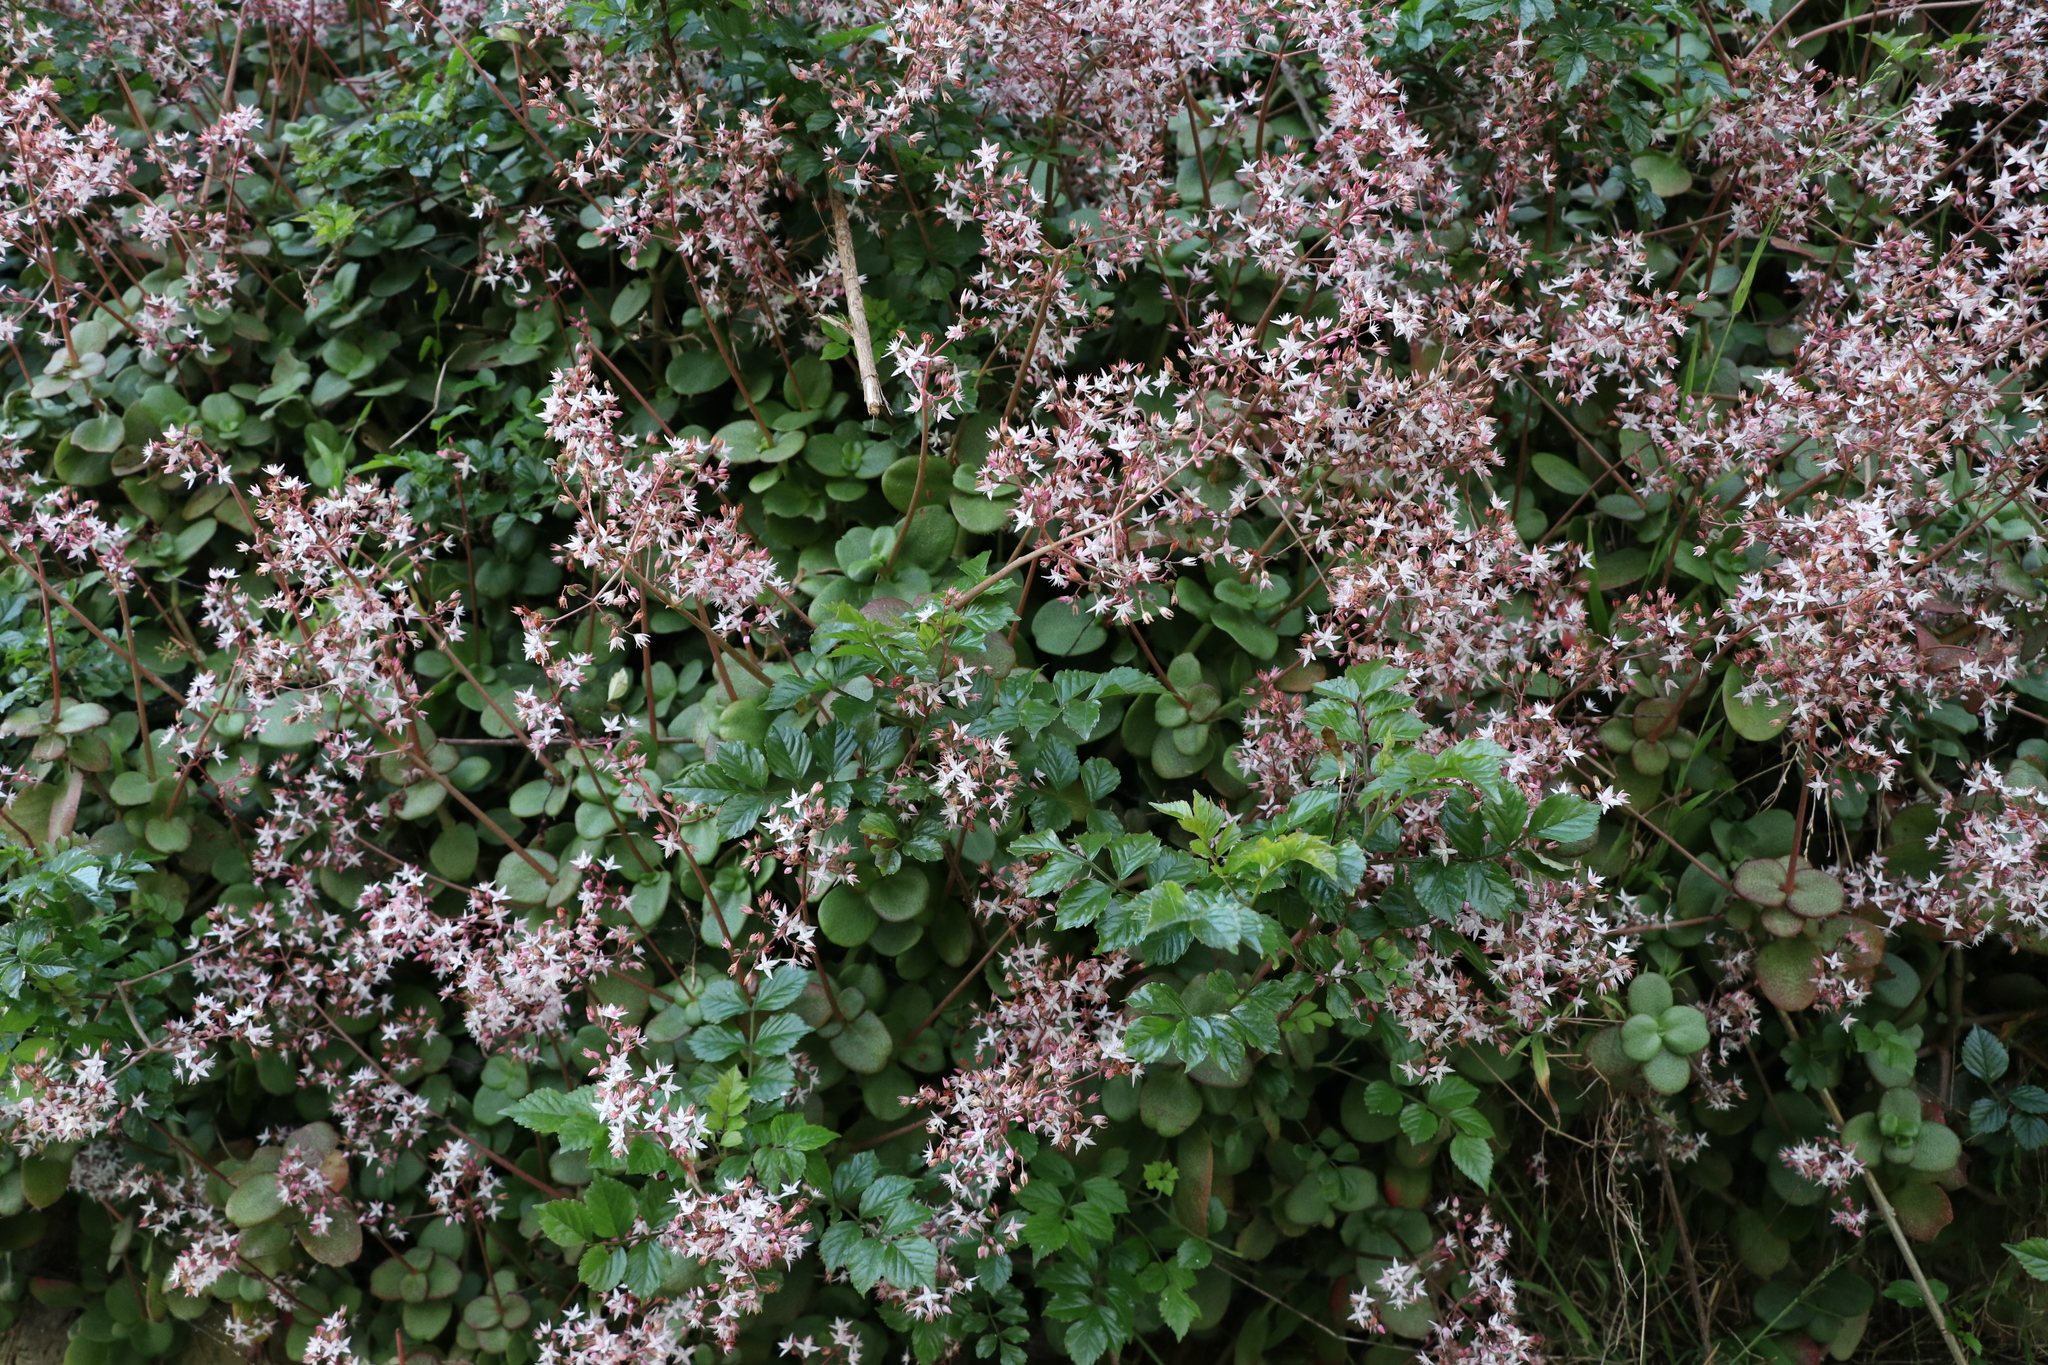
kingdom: Plantae
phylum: Tracheophyta
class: Magnoliopsida
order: Saxifragales
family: Crassulaceae
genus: Crassula
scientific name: Crassula multicava
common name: Cape province pygmyweed
